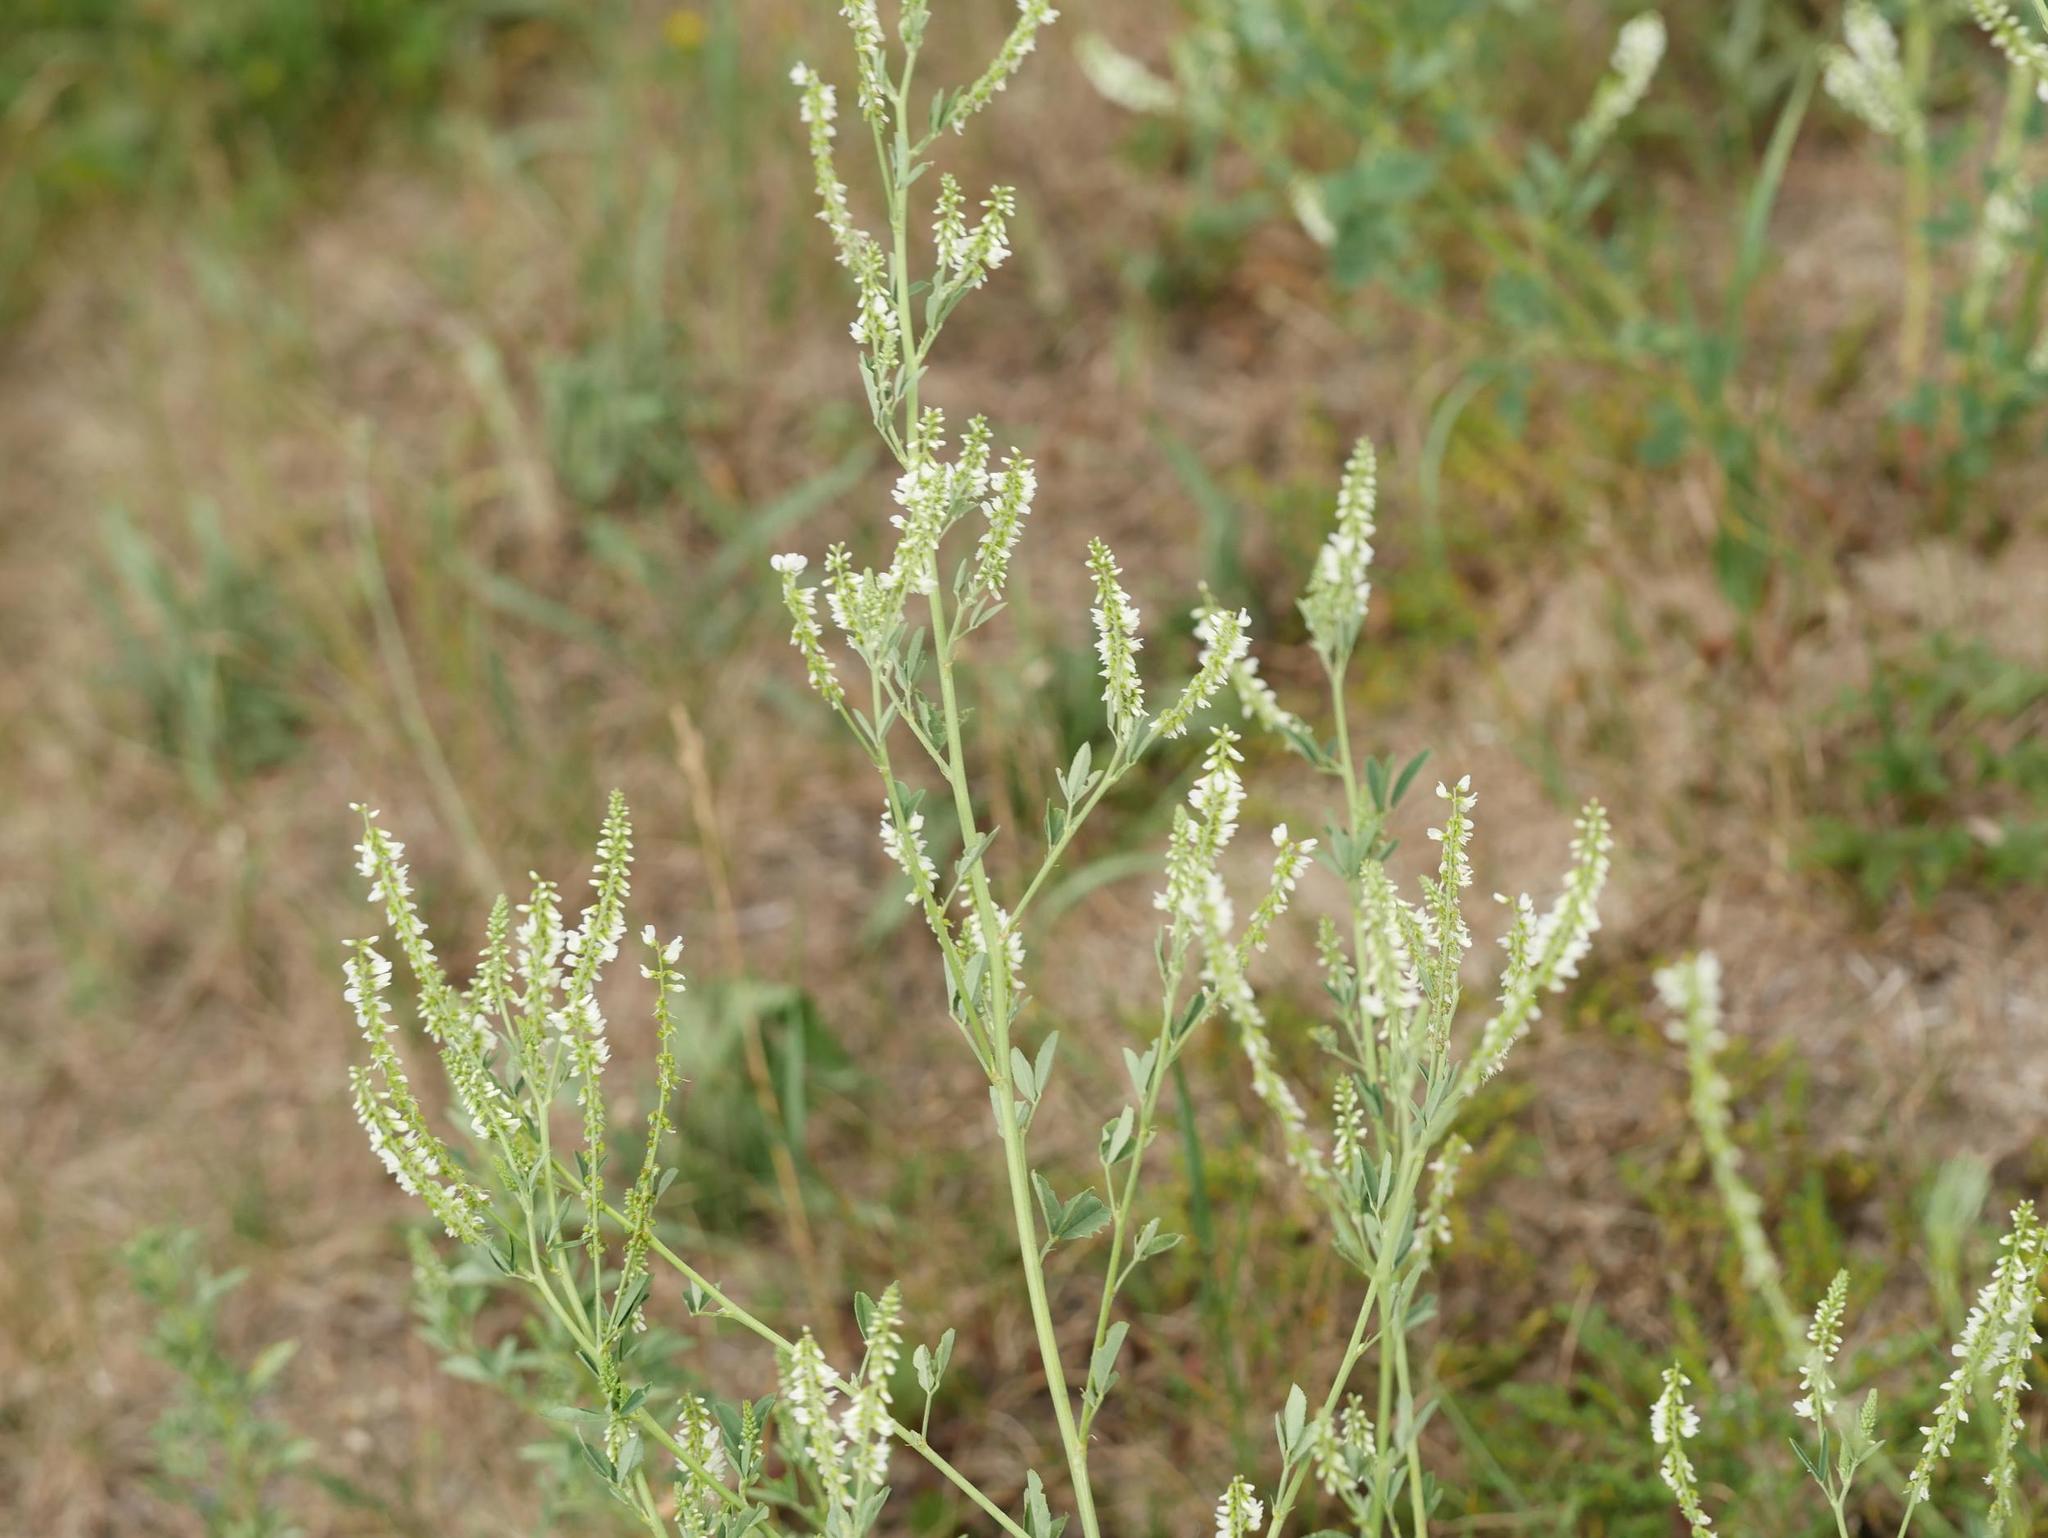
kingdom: Plantae
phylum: Tracheophyta
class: Magnoliopsida
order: Fabales
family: Fabaceae
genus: Melilotus
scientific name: Melilotus albus
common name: White melilot
